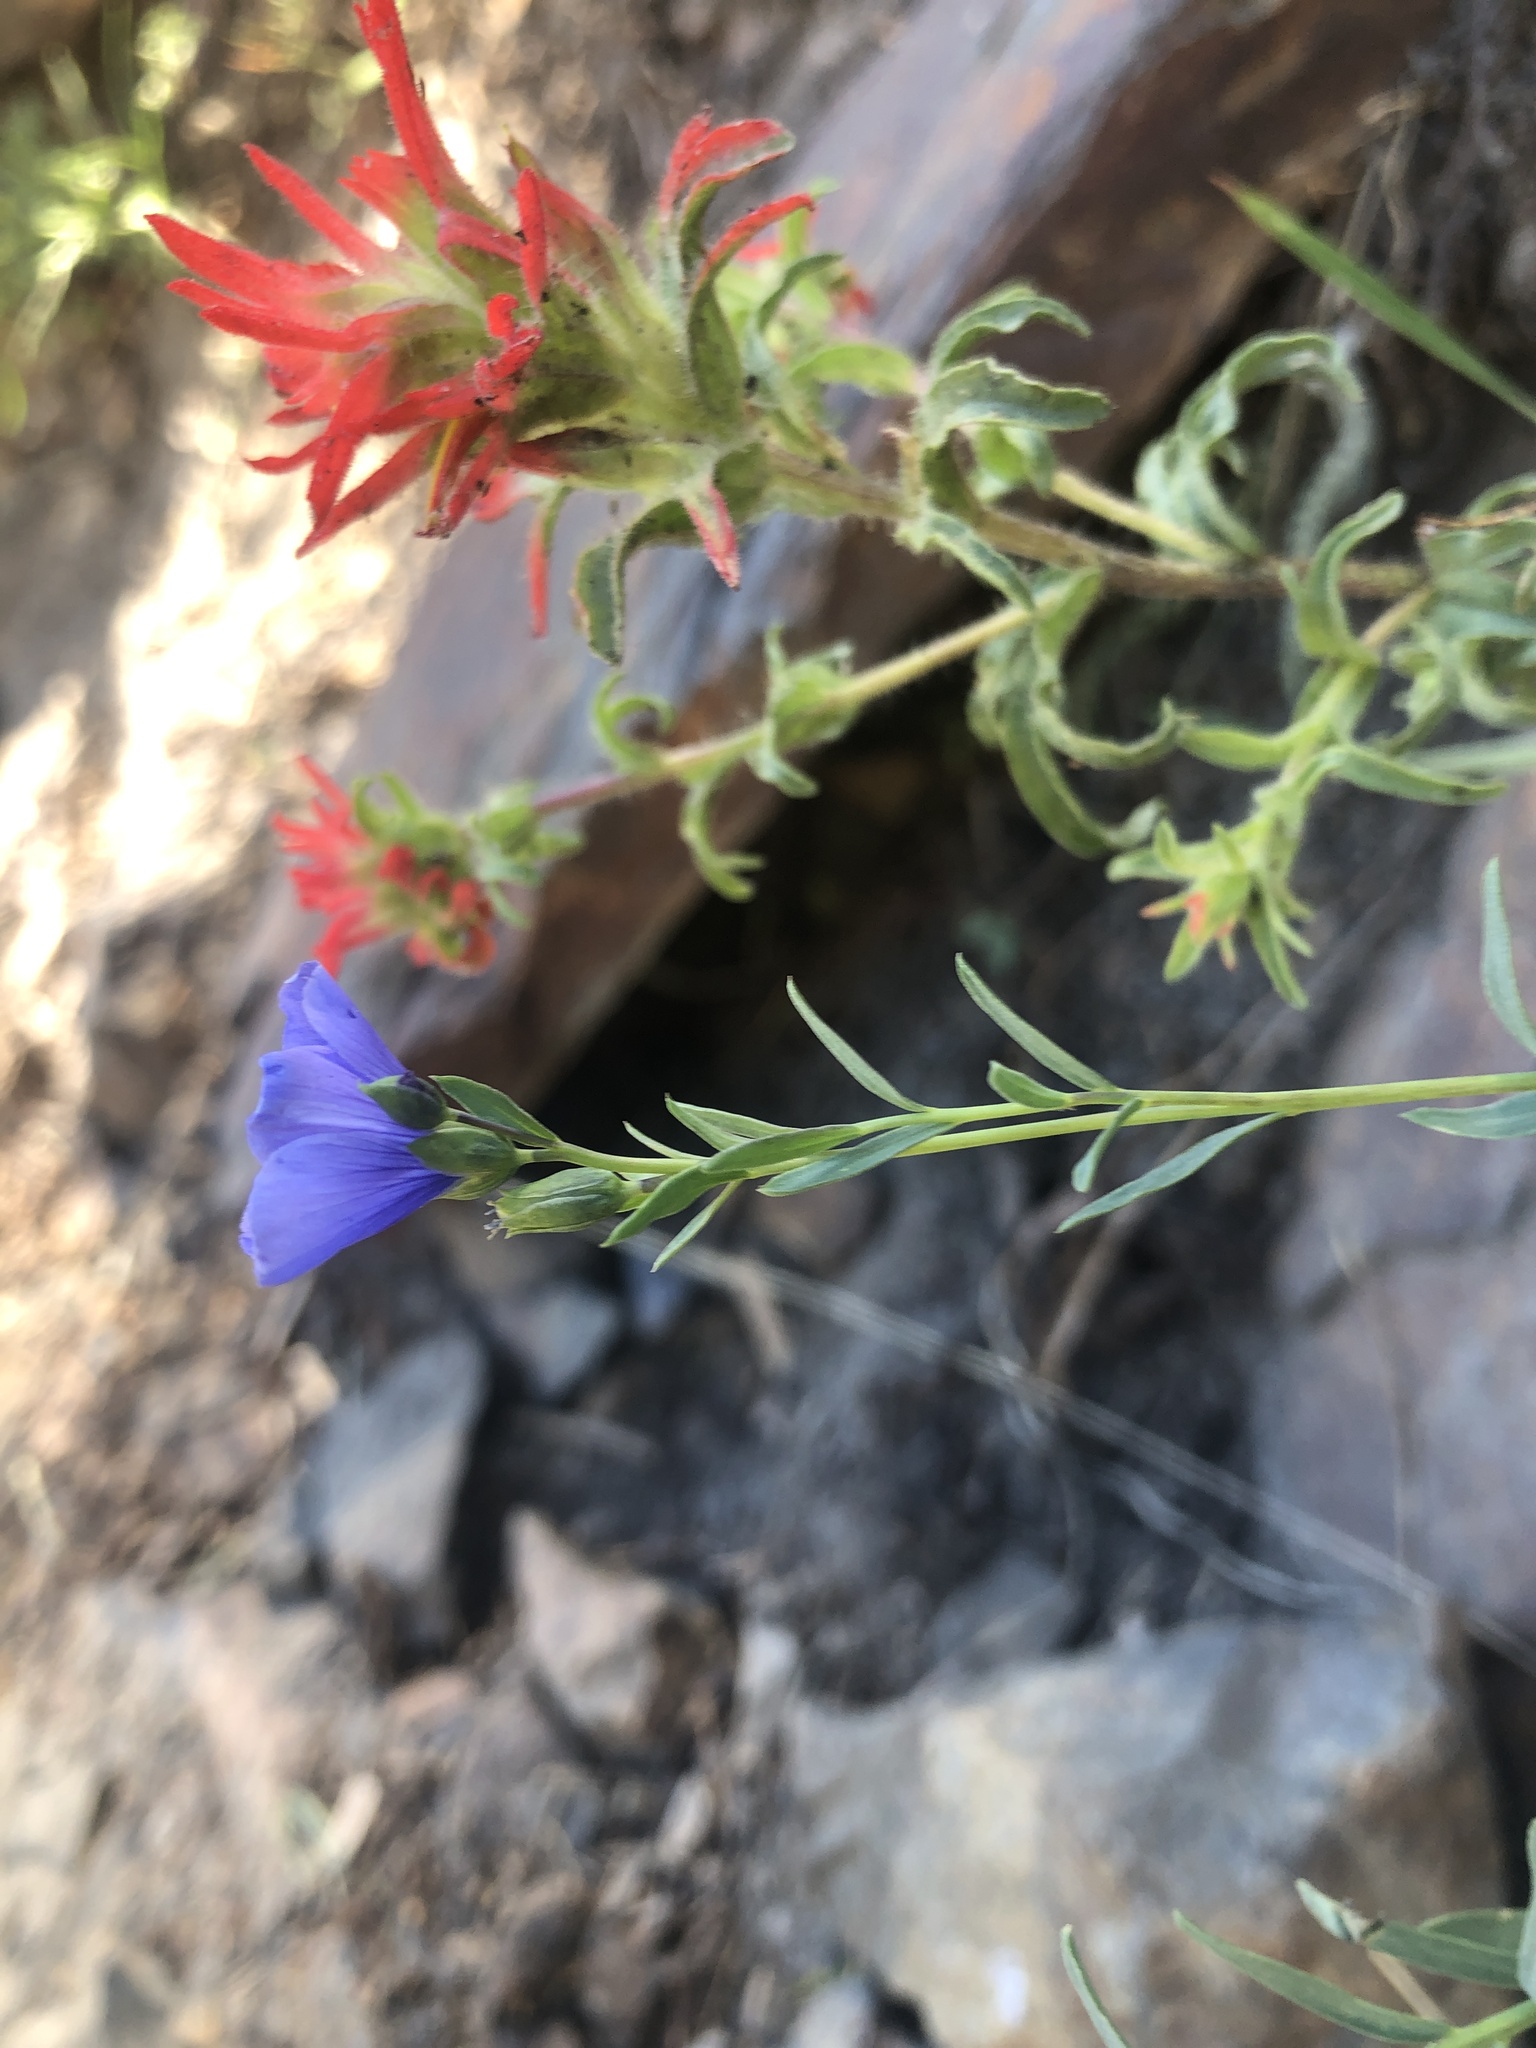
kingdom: Plantae
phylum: Tracheophyta
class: Magnoliopsida
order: Malpighiales
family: Linaceae
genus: Linum
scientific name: Linum lewisii
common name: Prairie flax
